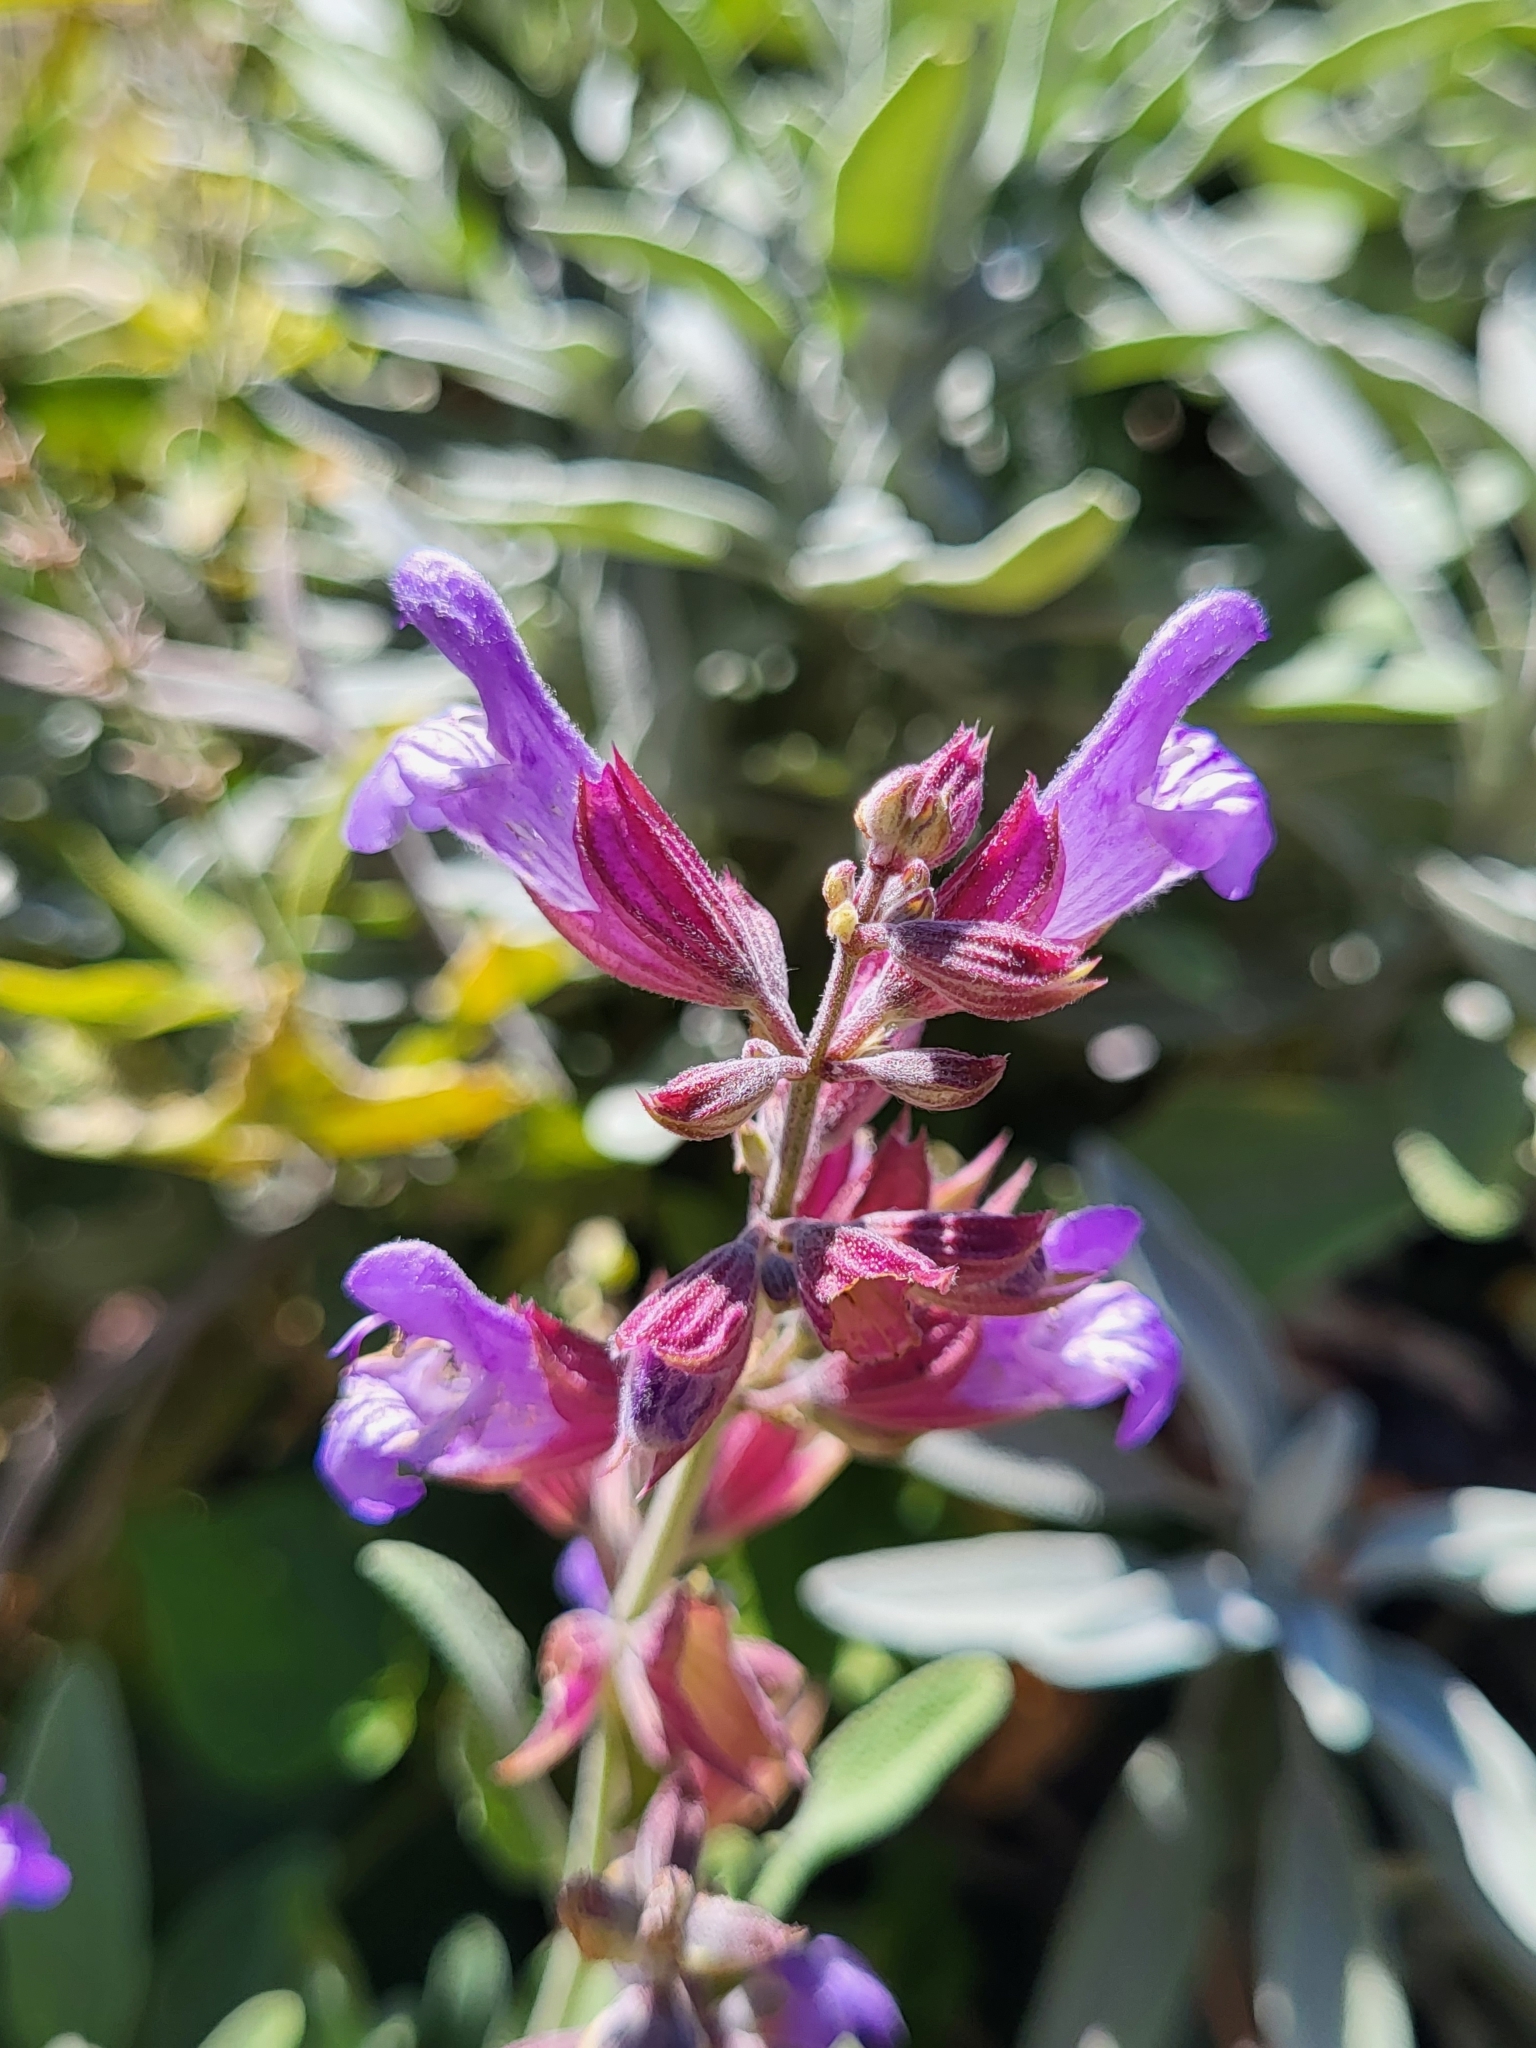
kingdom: Plantae
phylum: Tracheophyta
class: Magnoliopsida
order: Lamiales
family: Lamiaceae
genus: Salvia
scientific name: Salvia officinalis
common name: Sage
